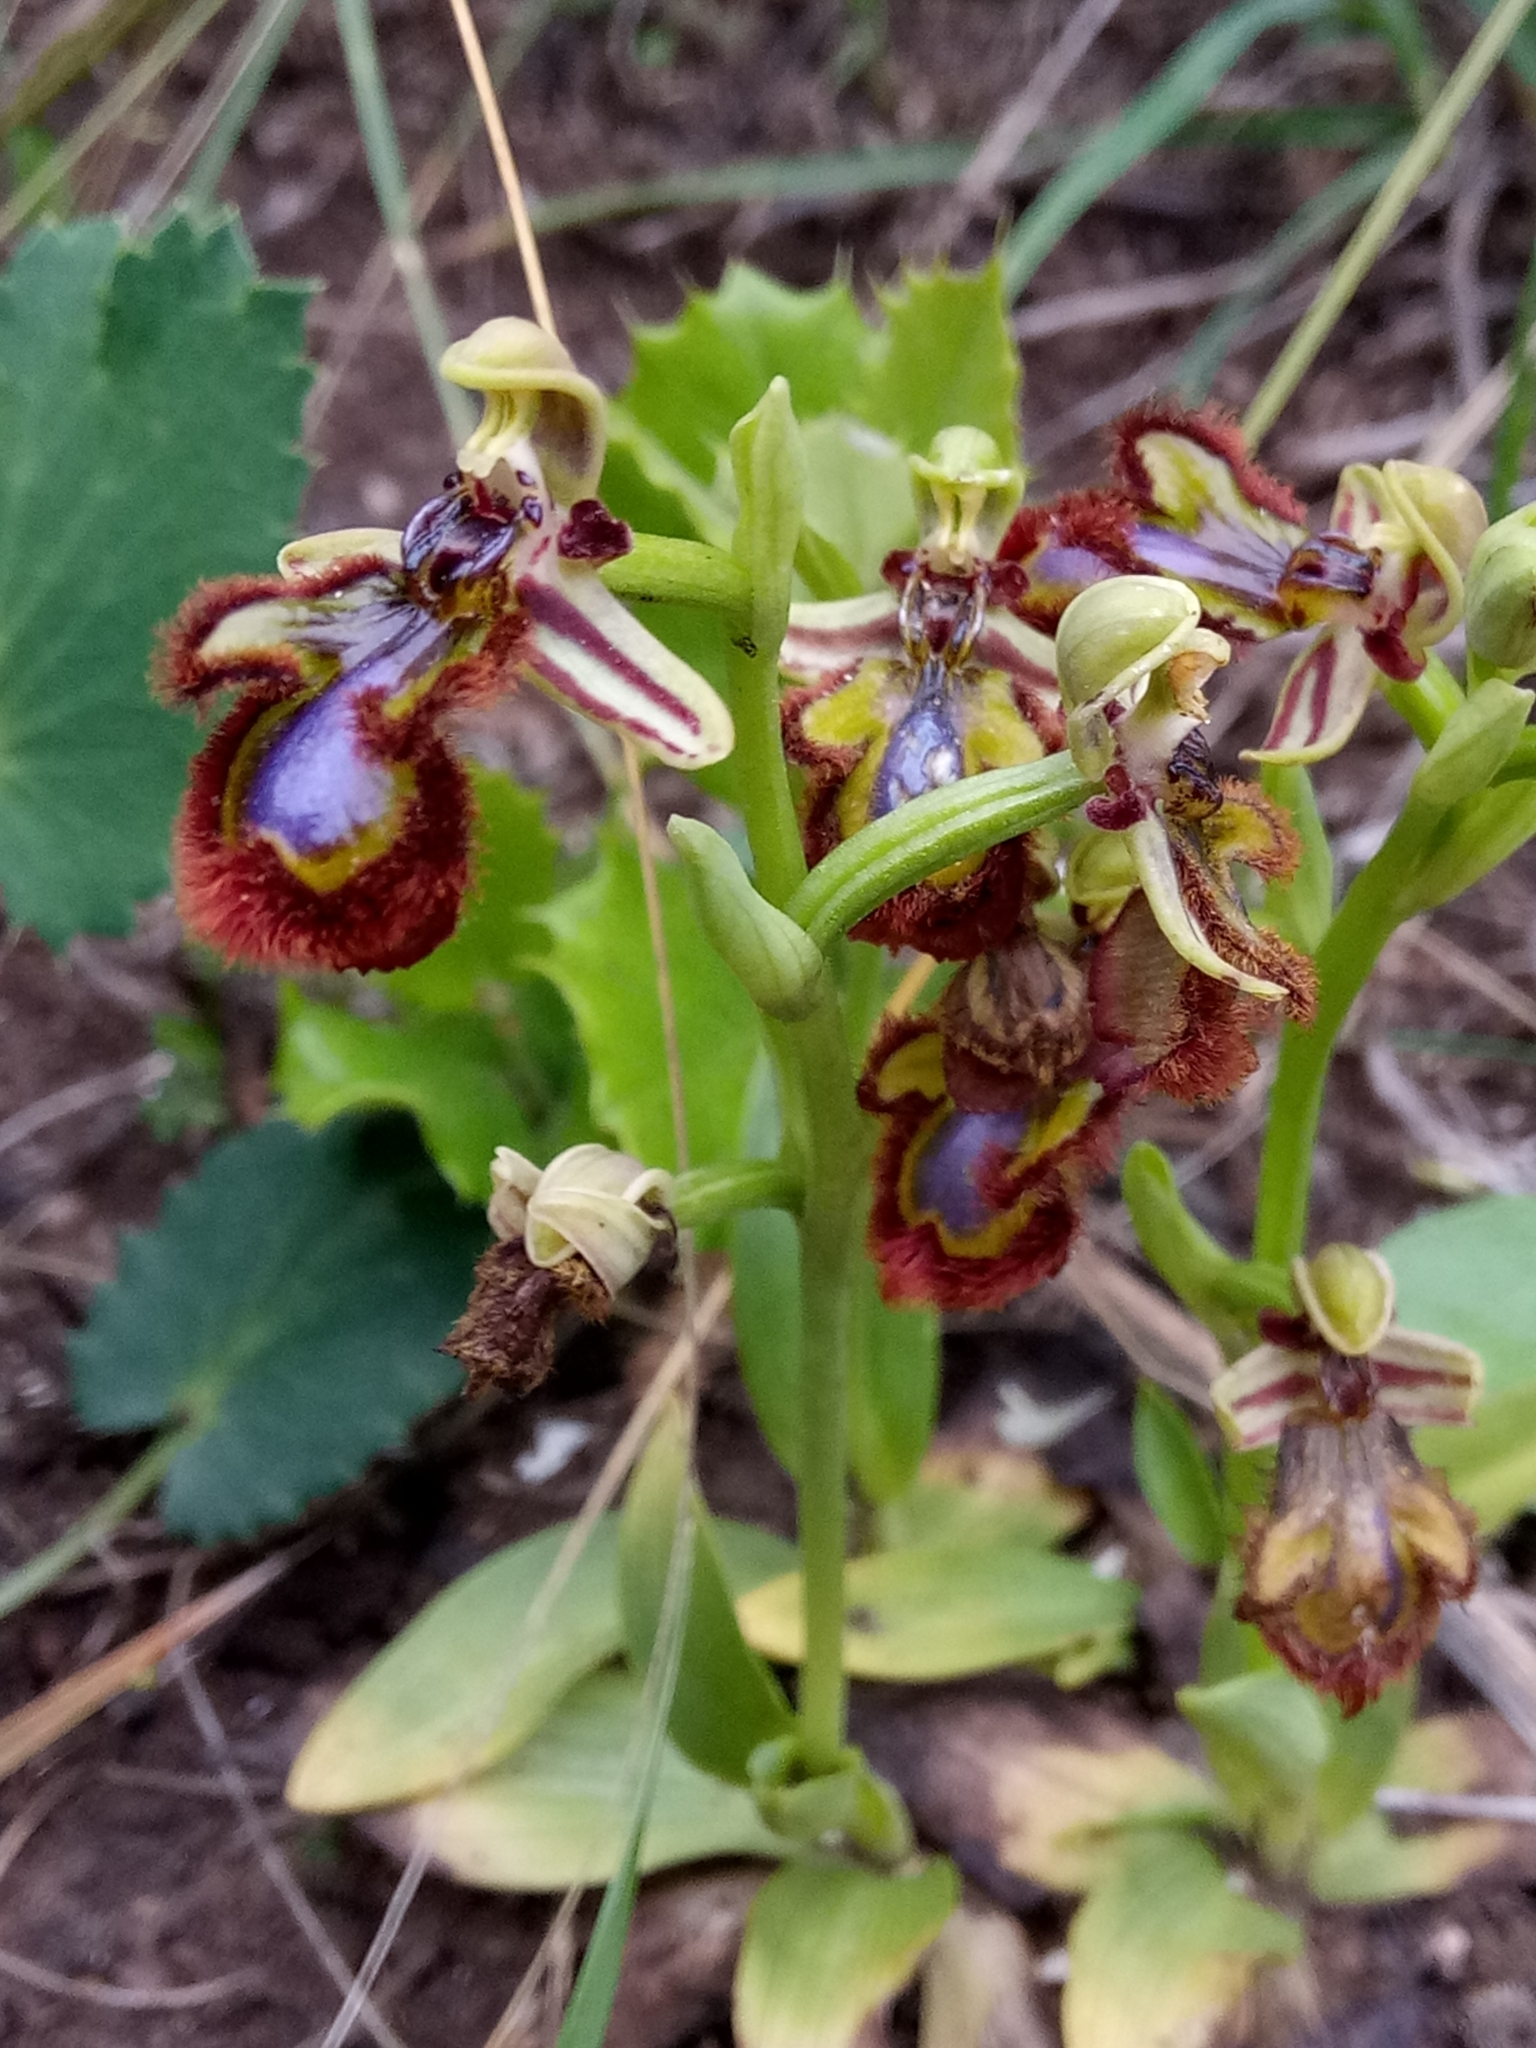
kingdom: Plantae
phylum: Tracheophyta
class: Liliopsida
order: Asparagales
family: Orchidaceae
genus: Ophrys
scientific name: Ophrys speculum
